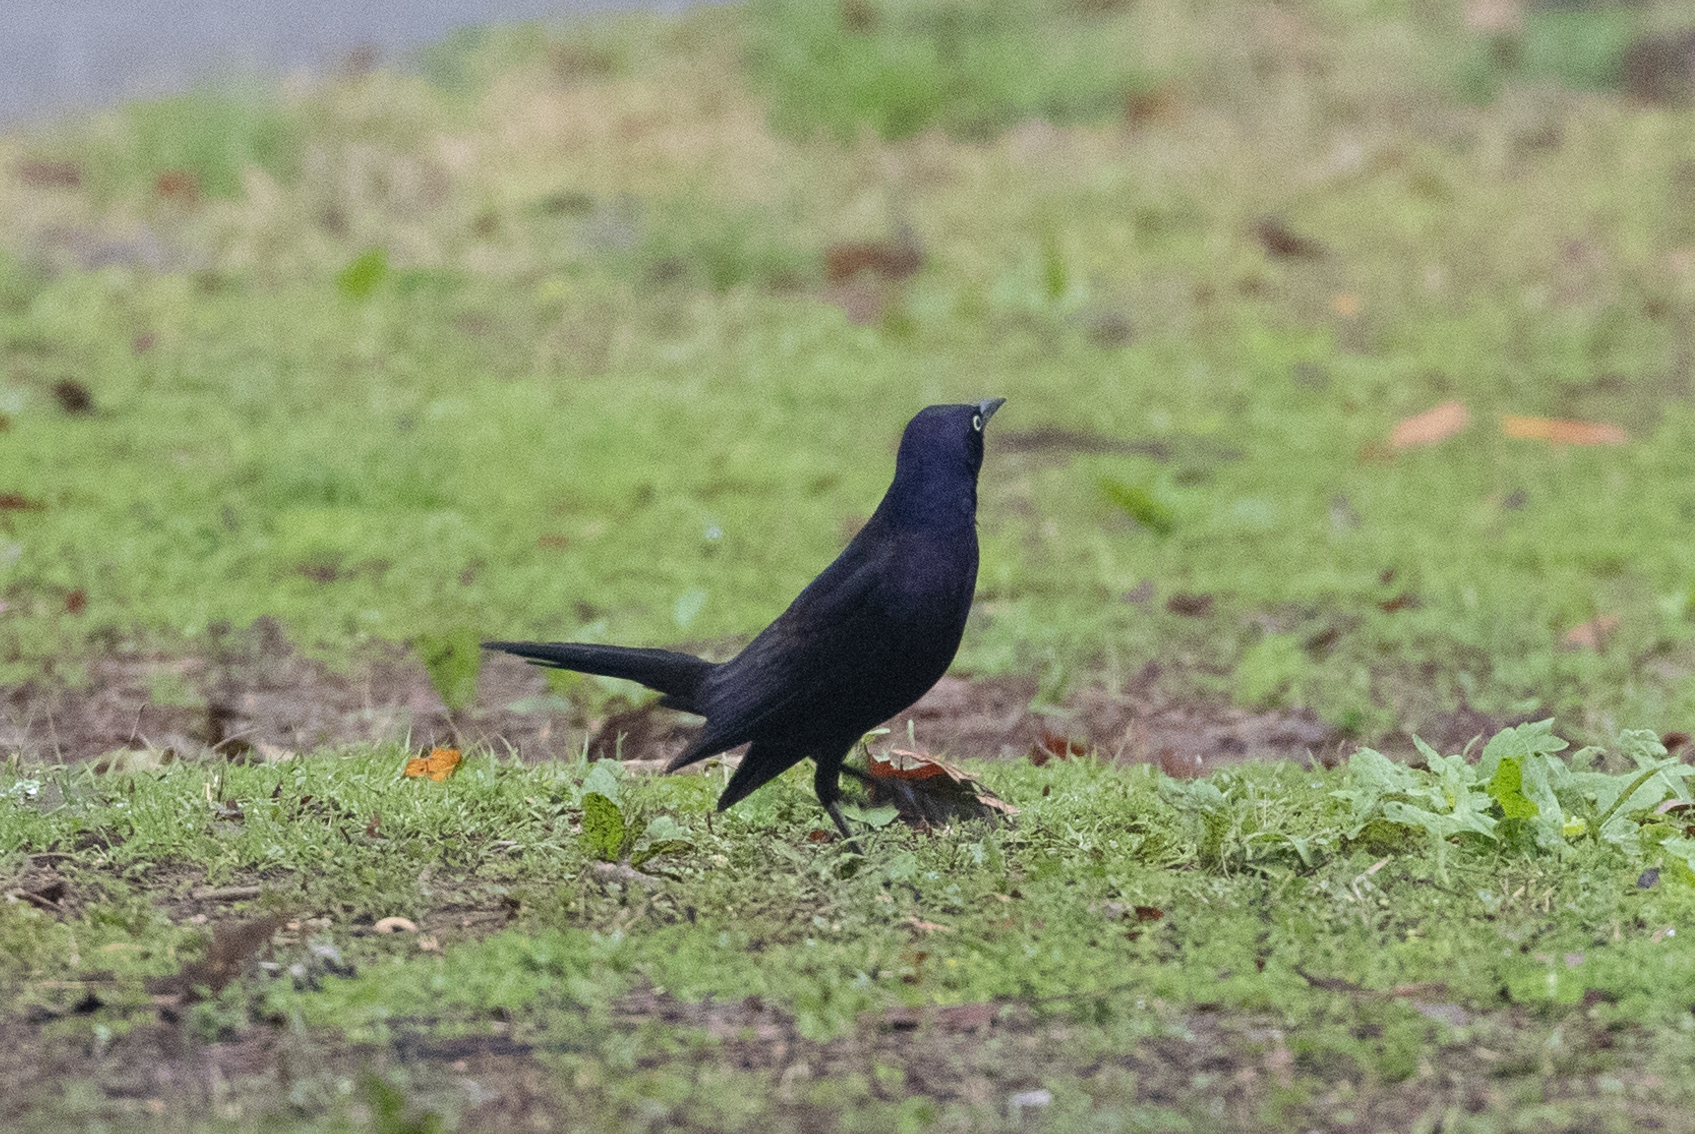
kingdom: Animalia
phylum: Chordata
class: Aves
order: Passeriformes
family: Icteridae
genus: Quiscalus
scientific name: Quiscalus quiscula
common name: Common grackle
